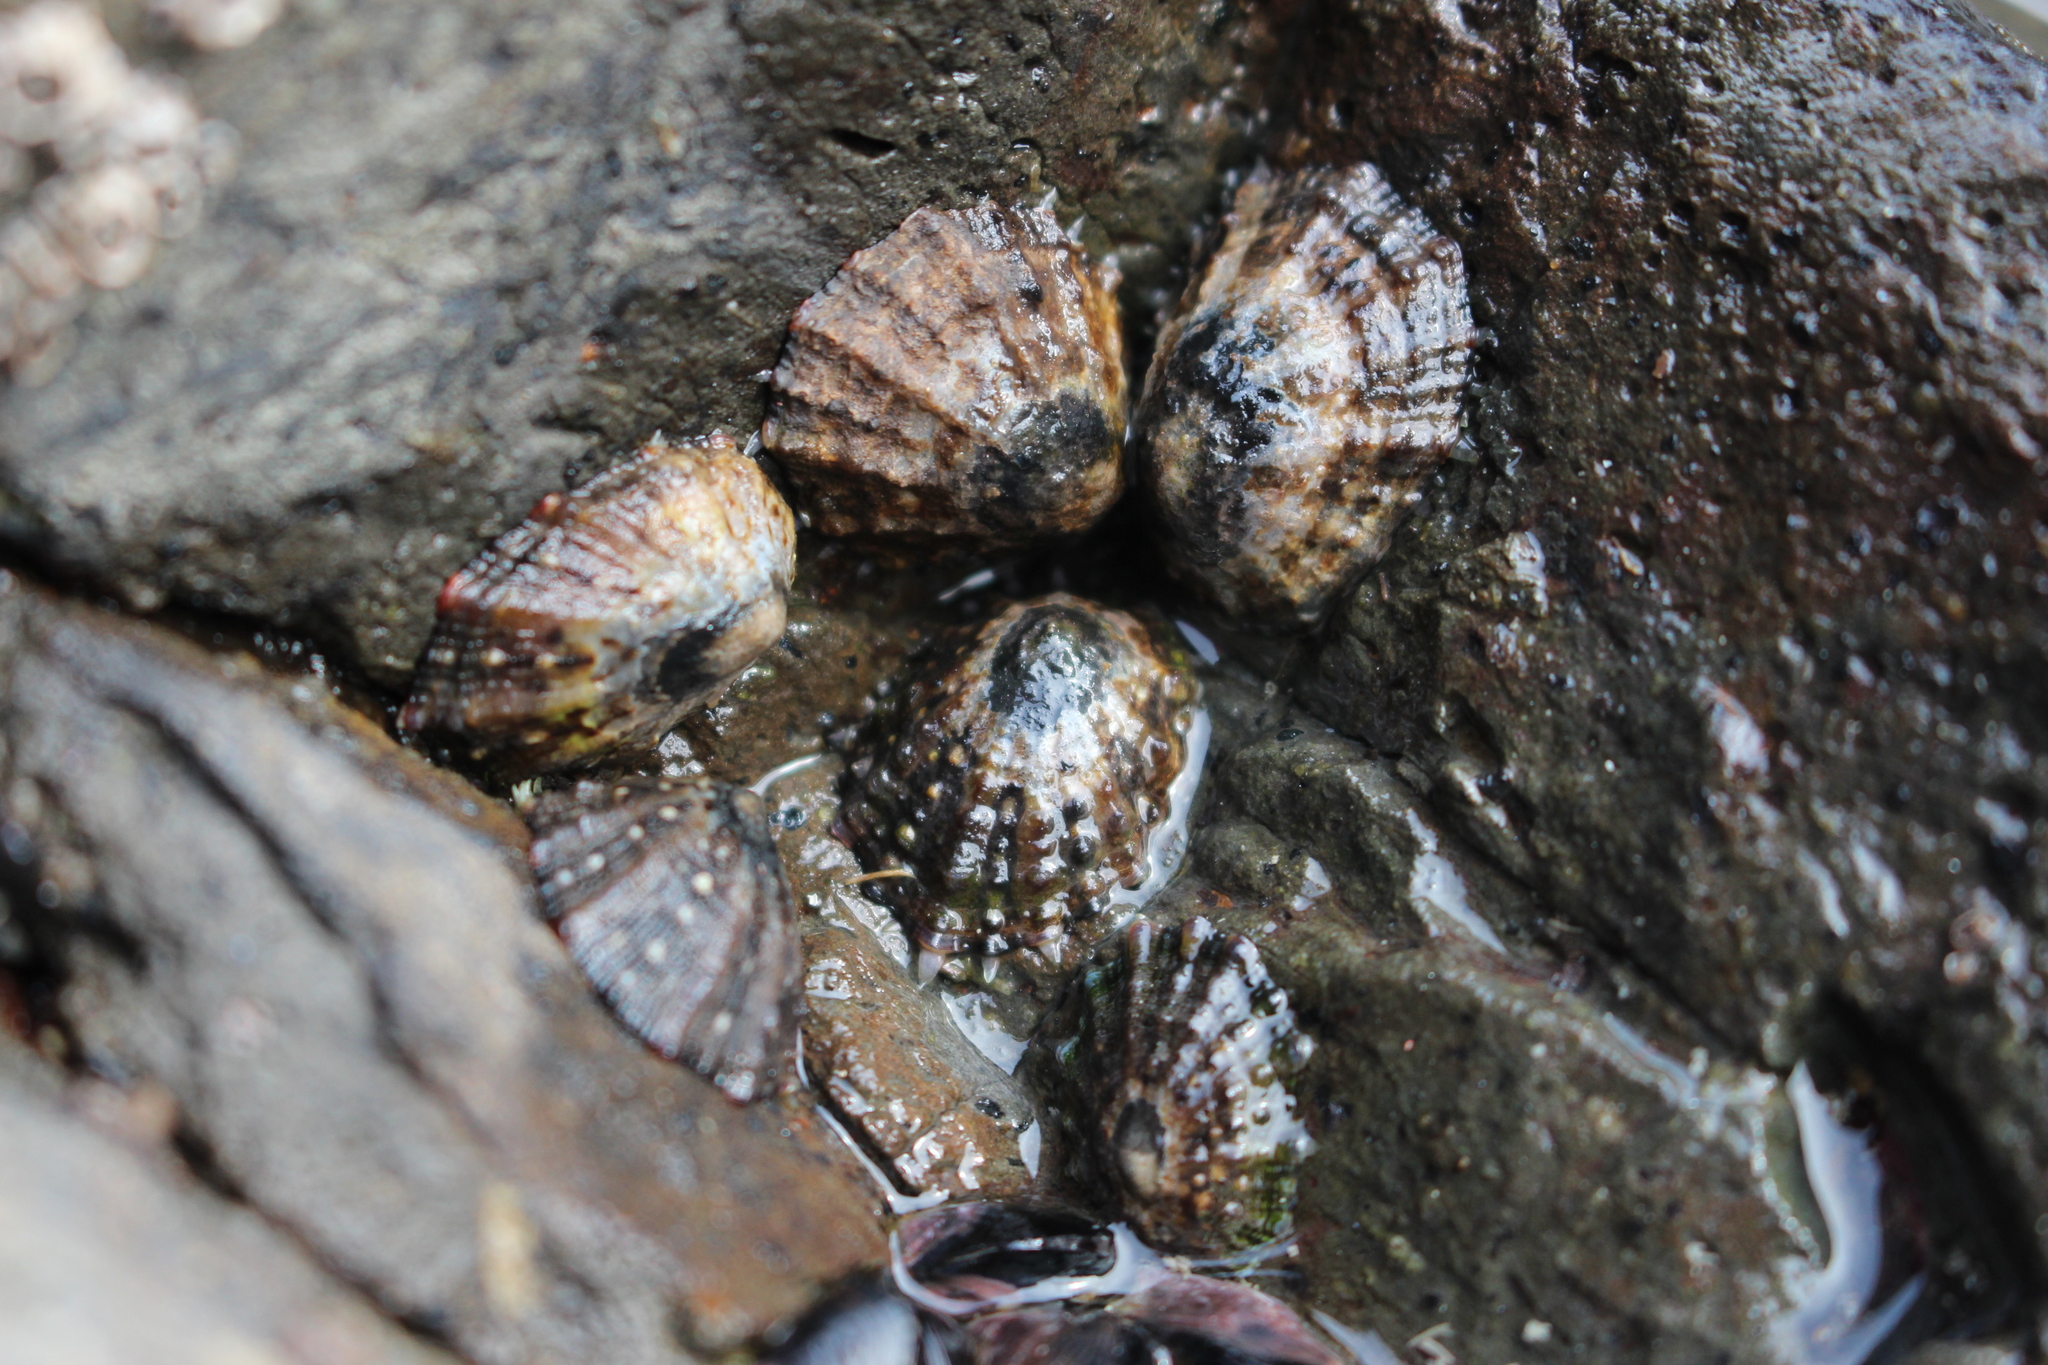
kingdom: Animalia
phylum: Mollusca
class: Gastropoda
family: Nacellidae
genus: Cellana
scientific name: Cellana ornata
